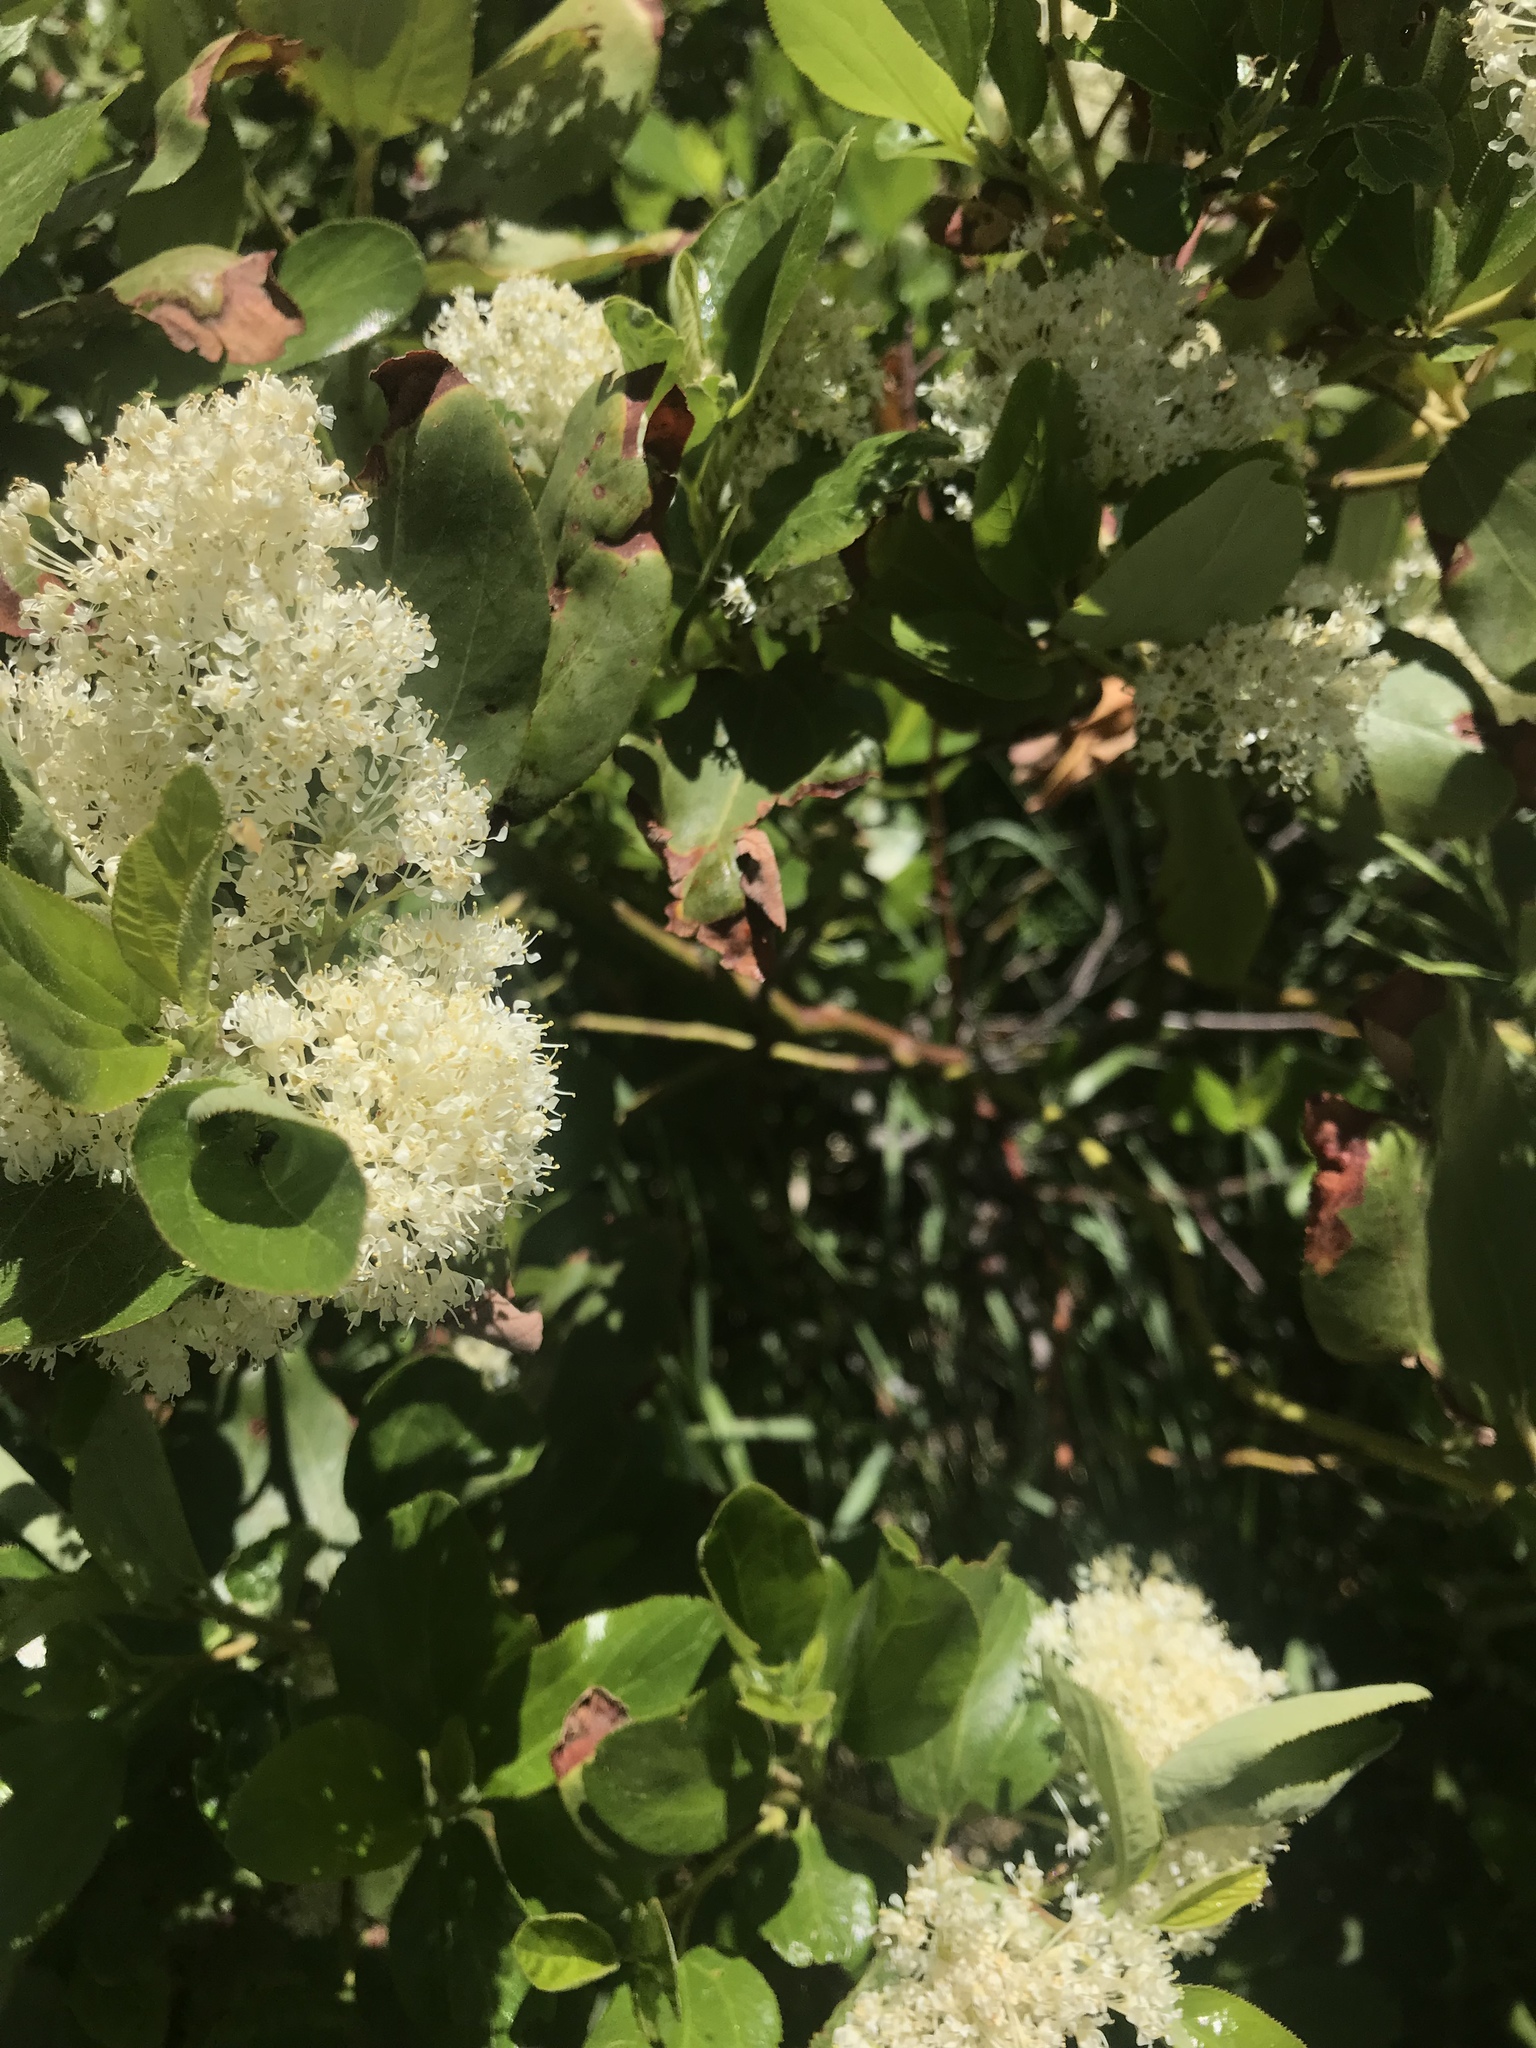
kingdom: Plantae
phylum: Tracheophyta
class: Magnoliopsida
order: Rosales
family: Rhamnaceae
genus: Ceanothus
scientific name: Ceanothus velutinus
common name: Snowbrush
